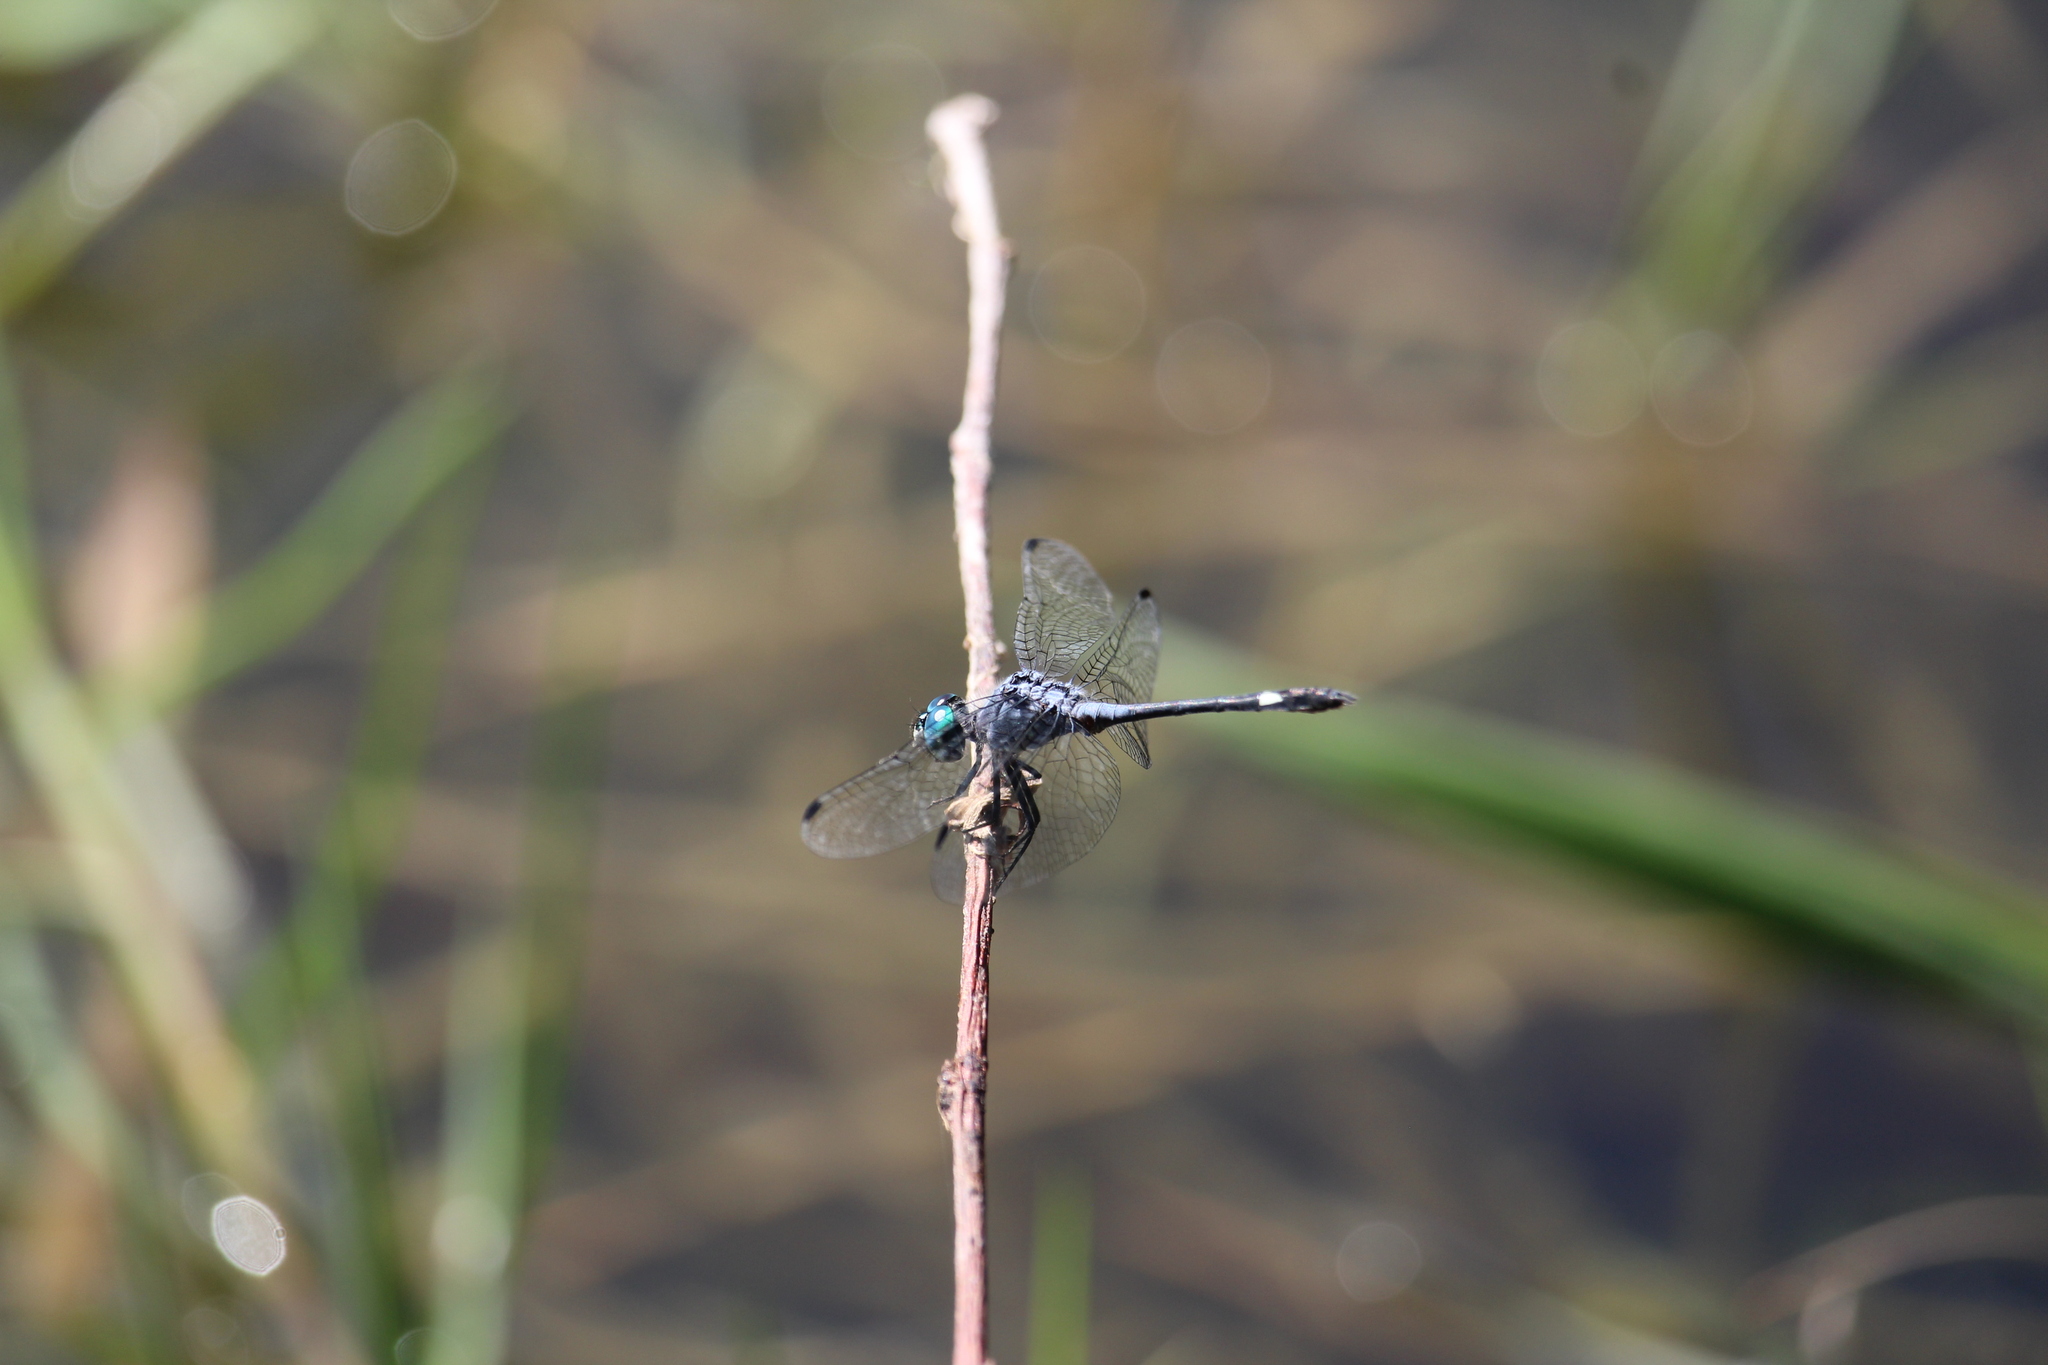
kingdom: Animalia
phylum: Arthropoda
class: Insecta
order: Odonata
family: Libellulidae
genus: Micrathyria
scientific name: Micrathyria aequalis
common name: Spot-tailed dasher
